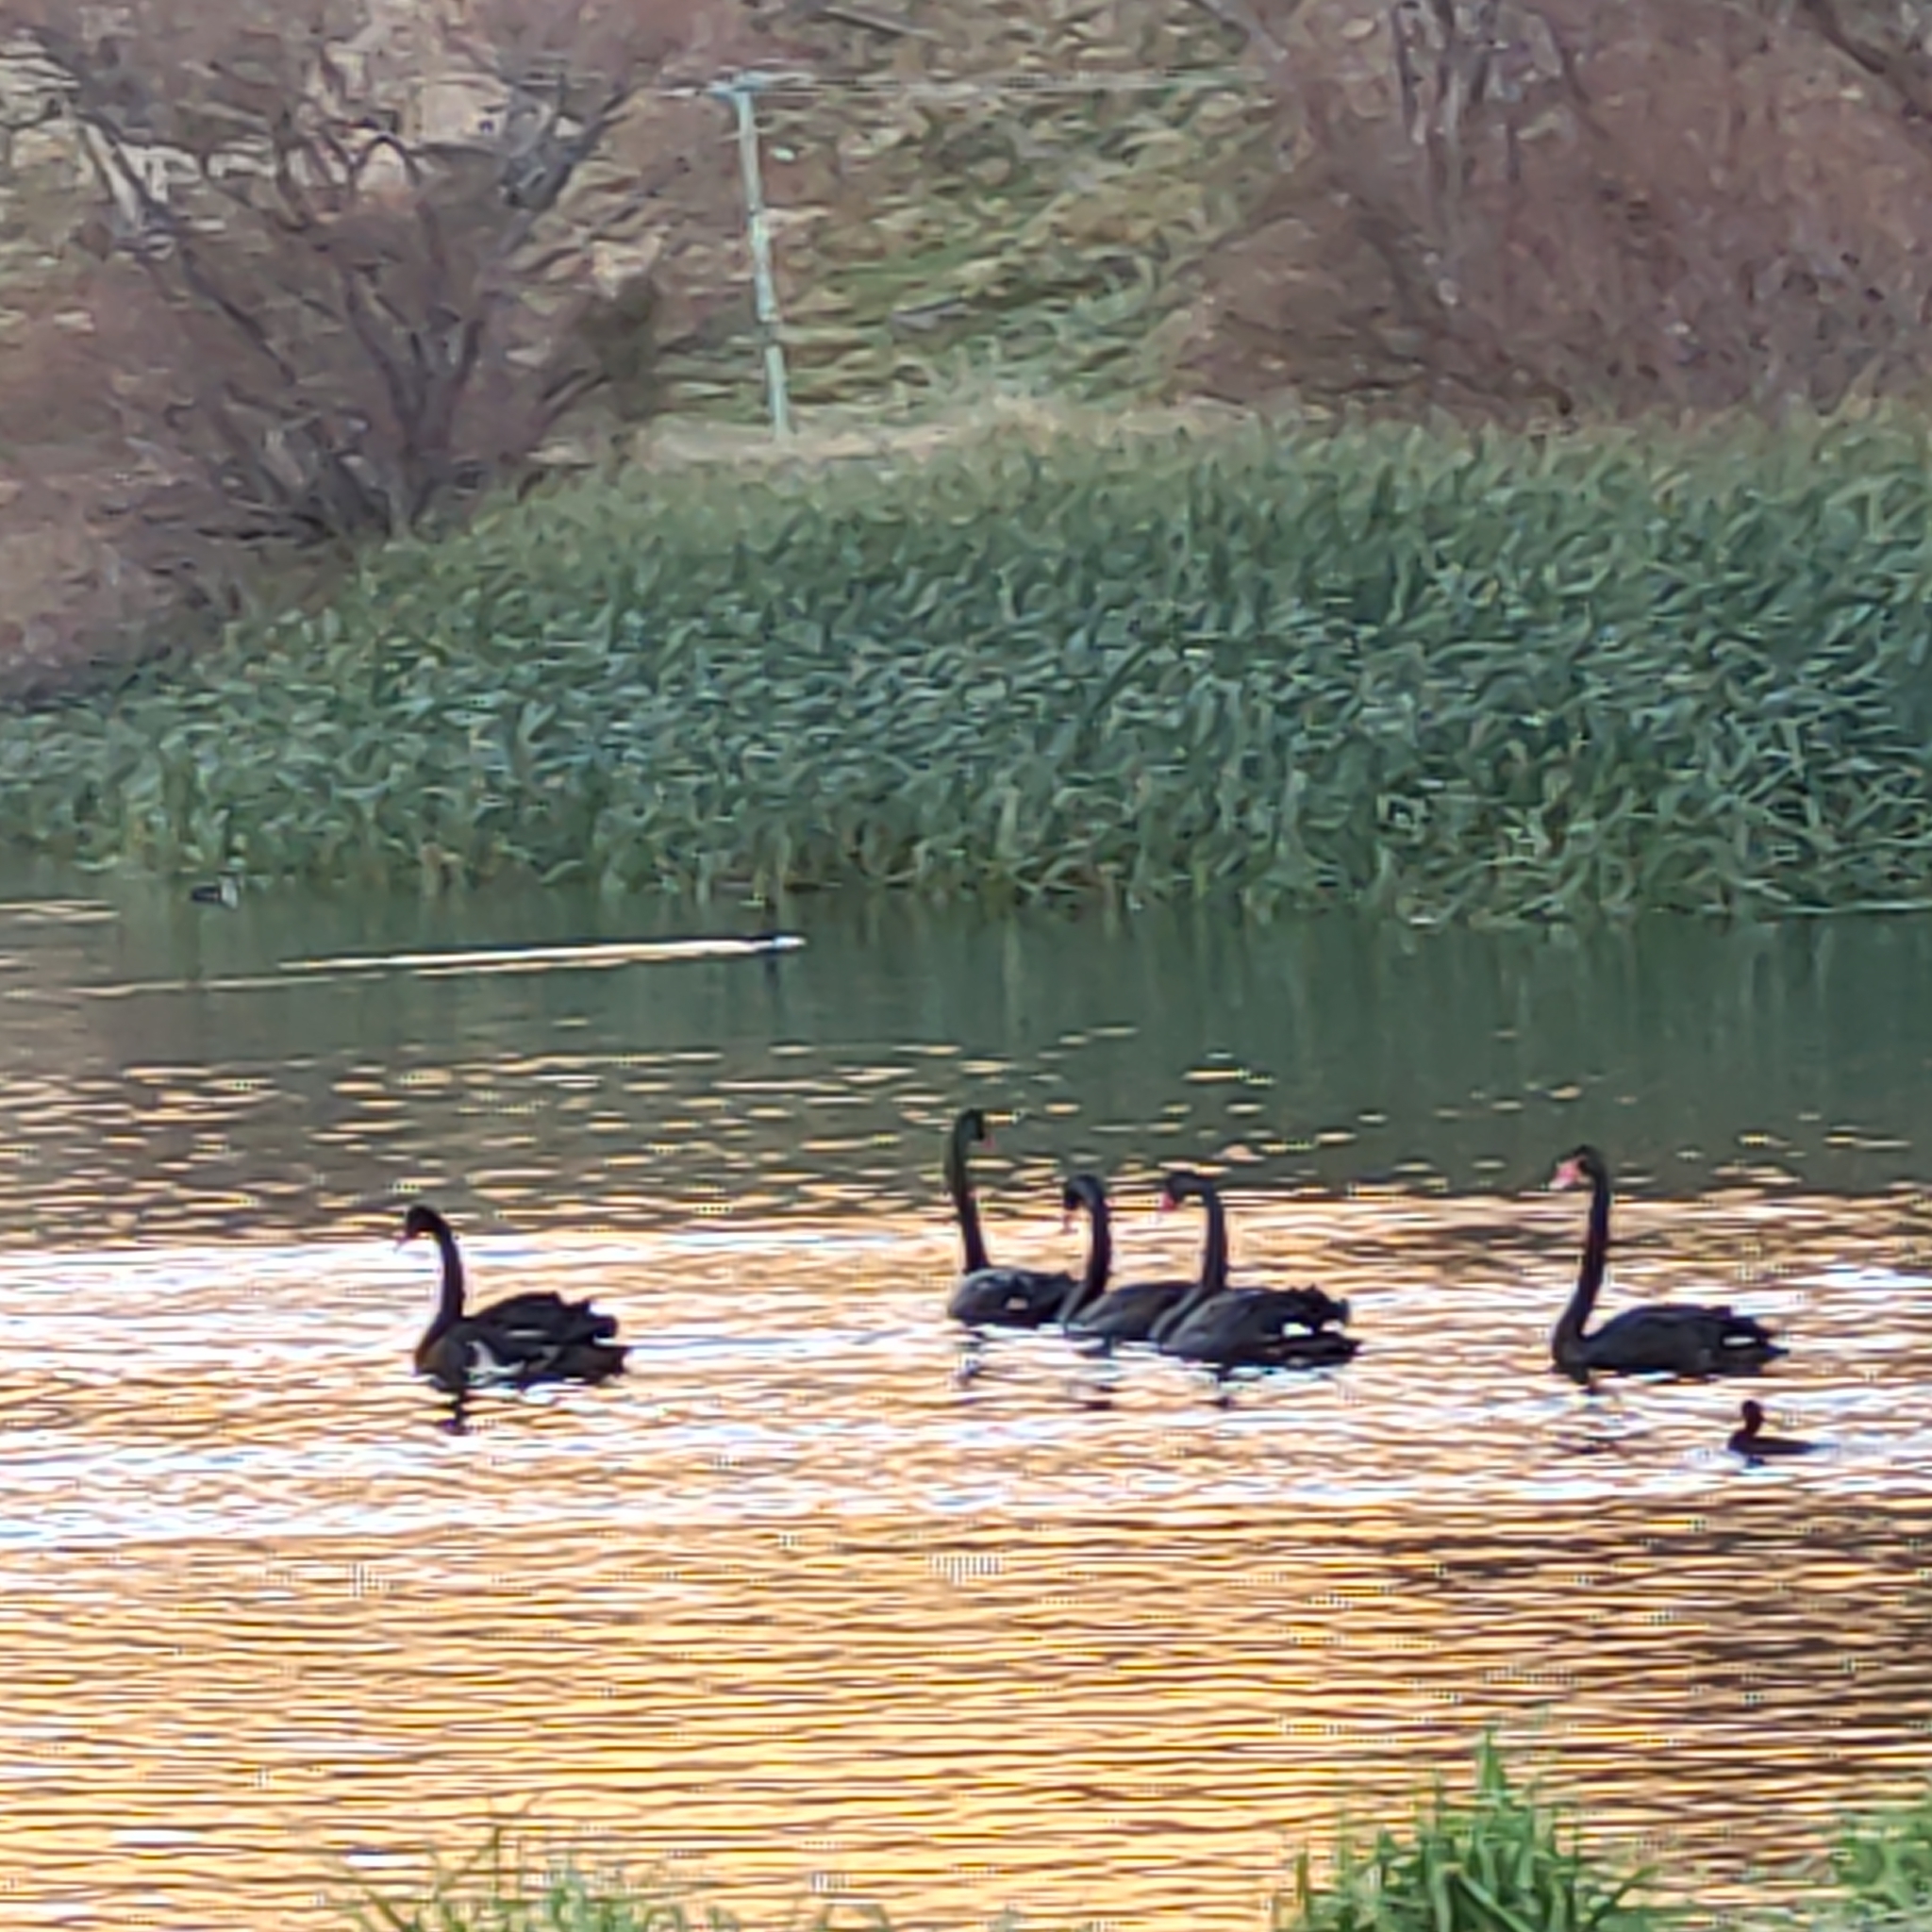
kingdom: Animalia
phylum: Chordata
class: Aves
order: Anseriformes
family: Anatidae
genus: Cygnus
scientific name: Cygnus atratus
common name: Black swan
